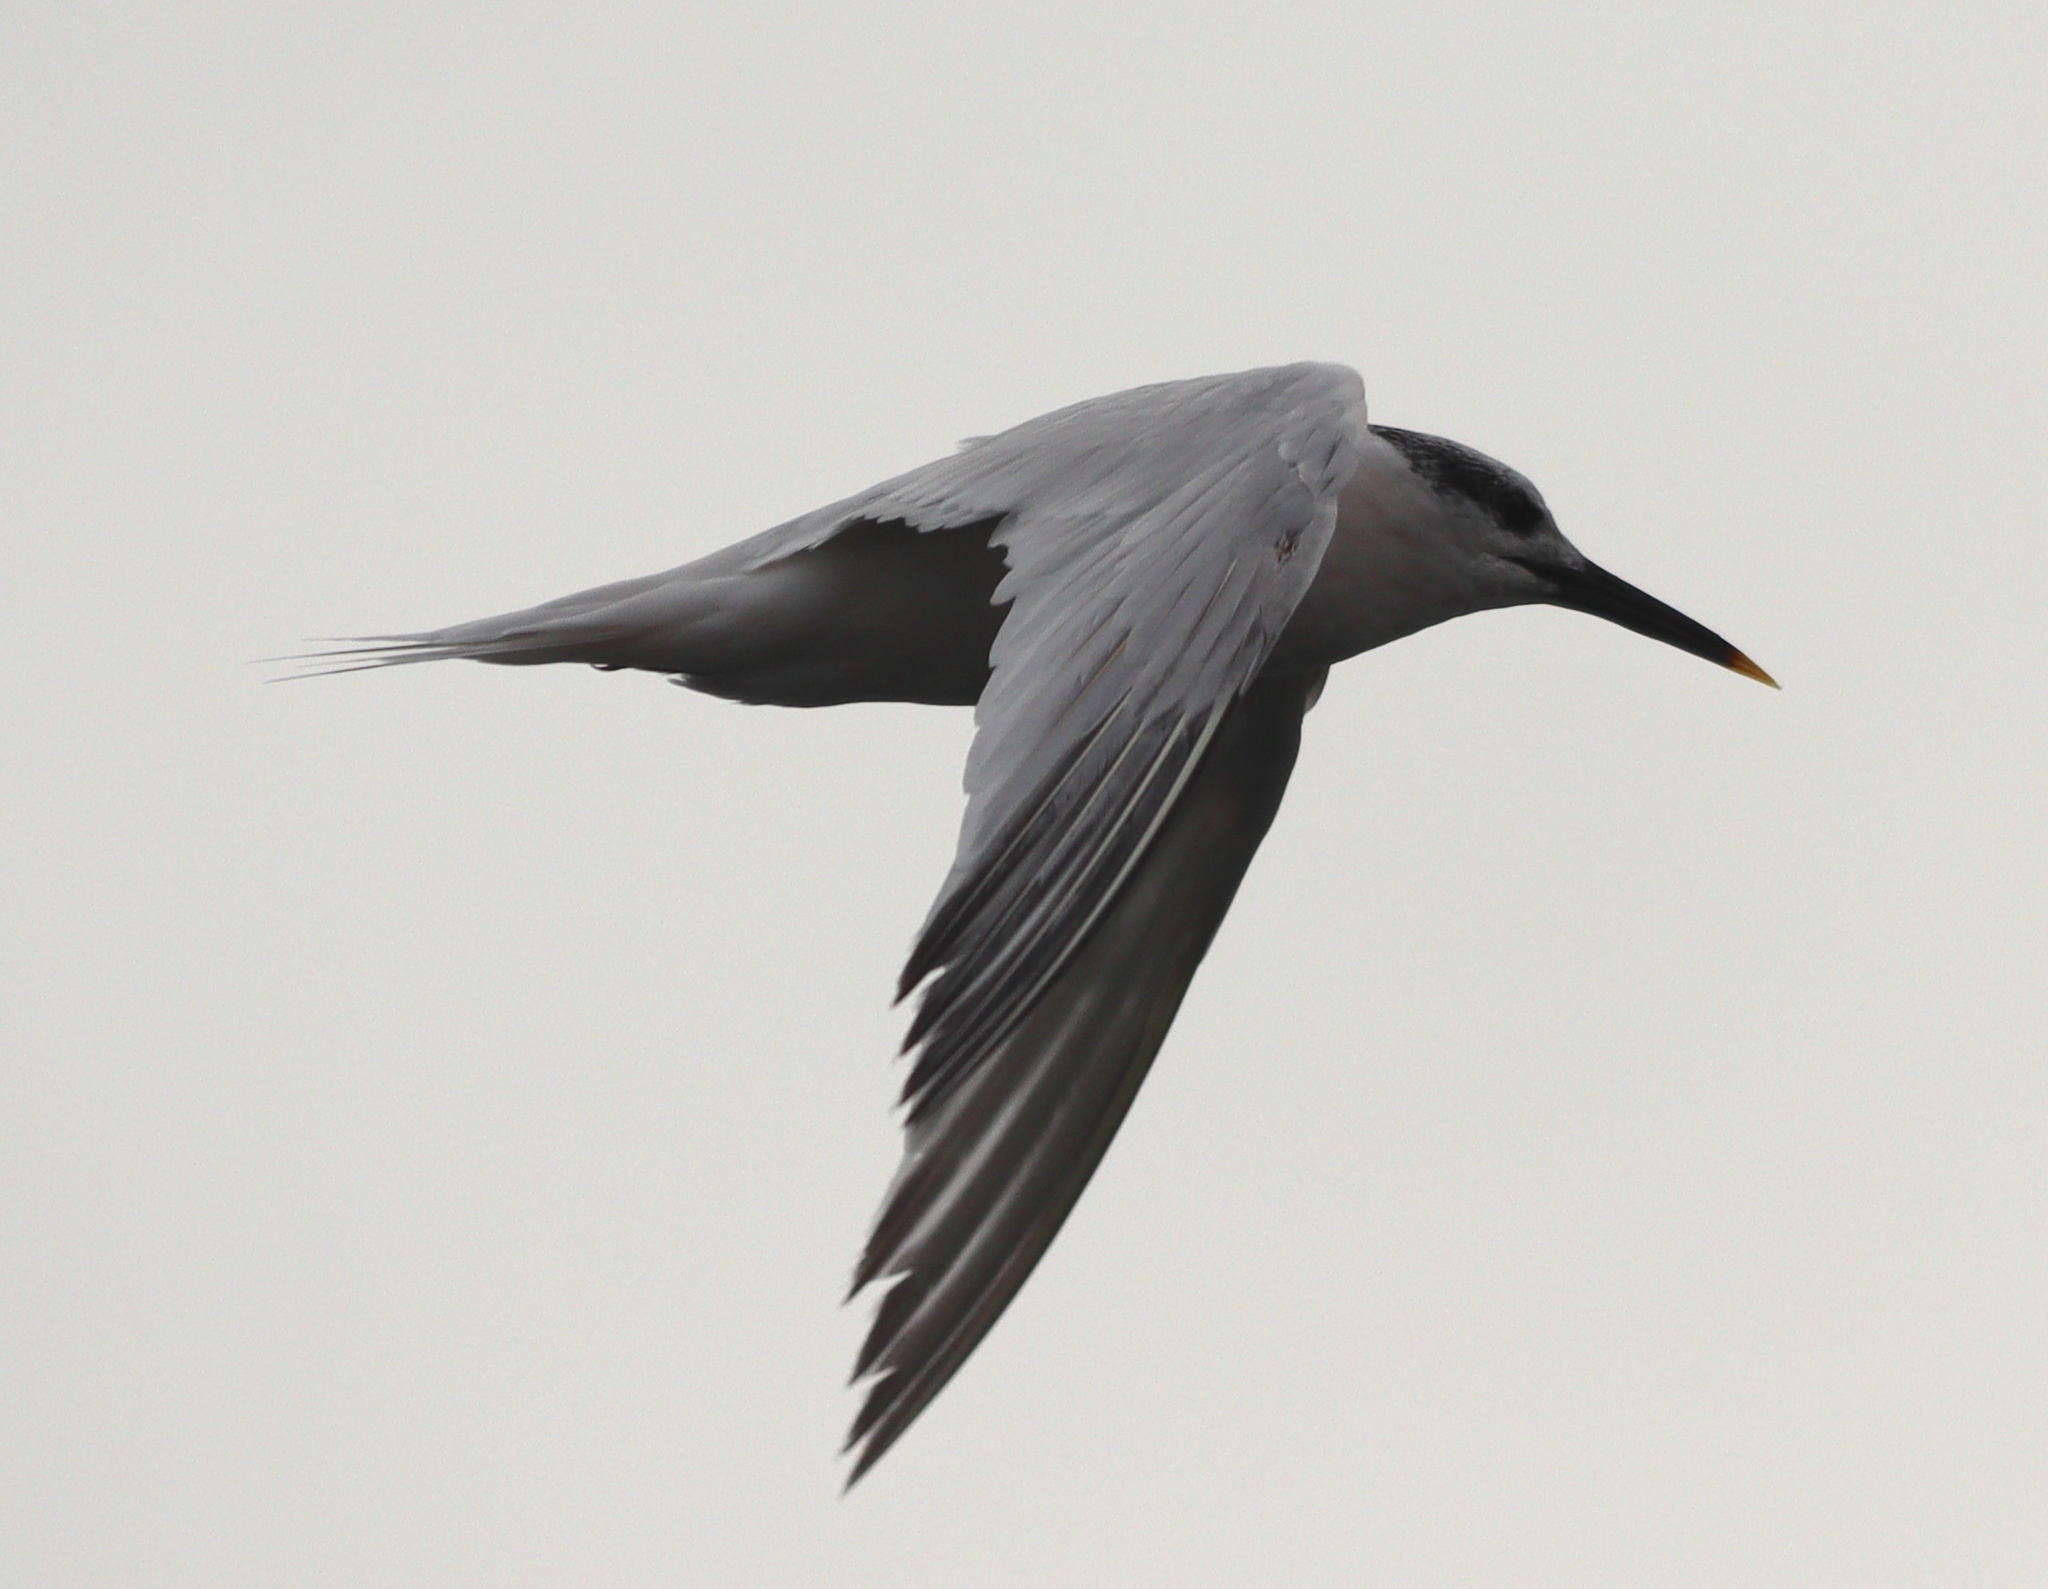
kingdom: Animalia
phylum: Chordata
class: Aves
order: Charadriiformes
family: Laridae
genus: Thalasseus
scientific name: Thalasseus sandvicensis
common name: Sandwich tern
